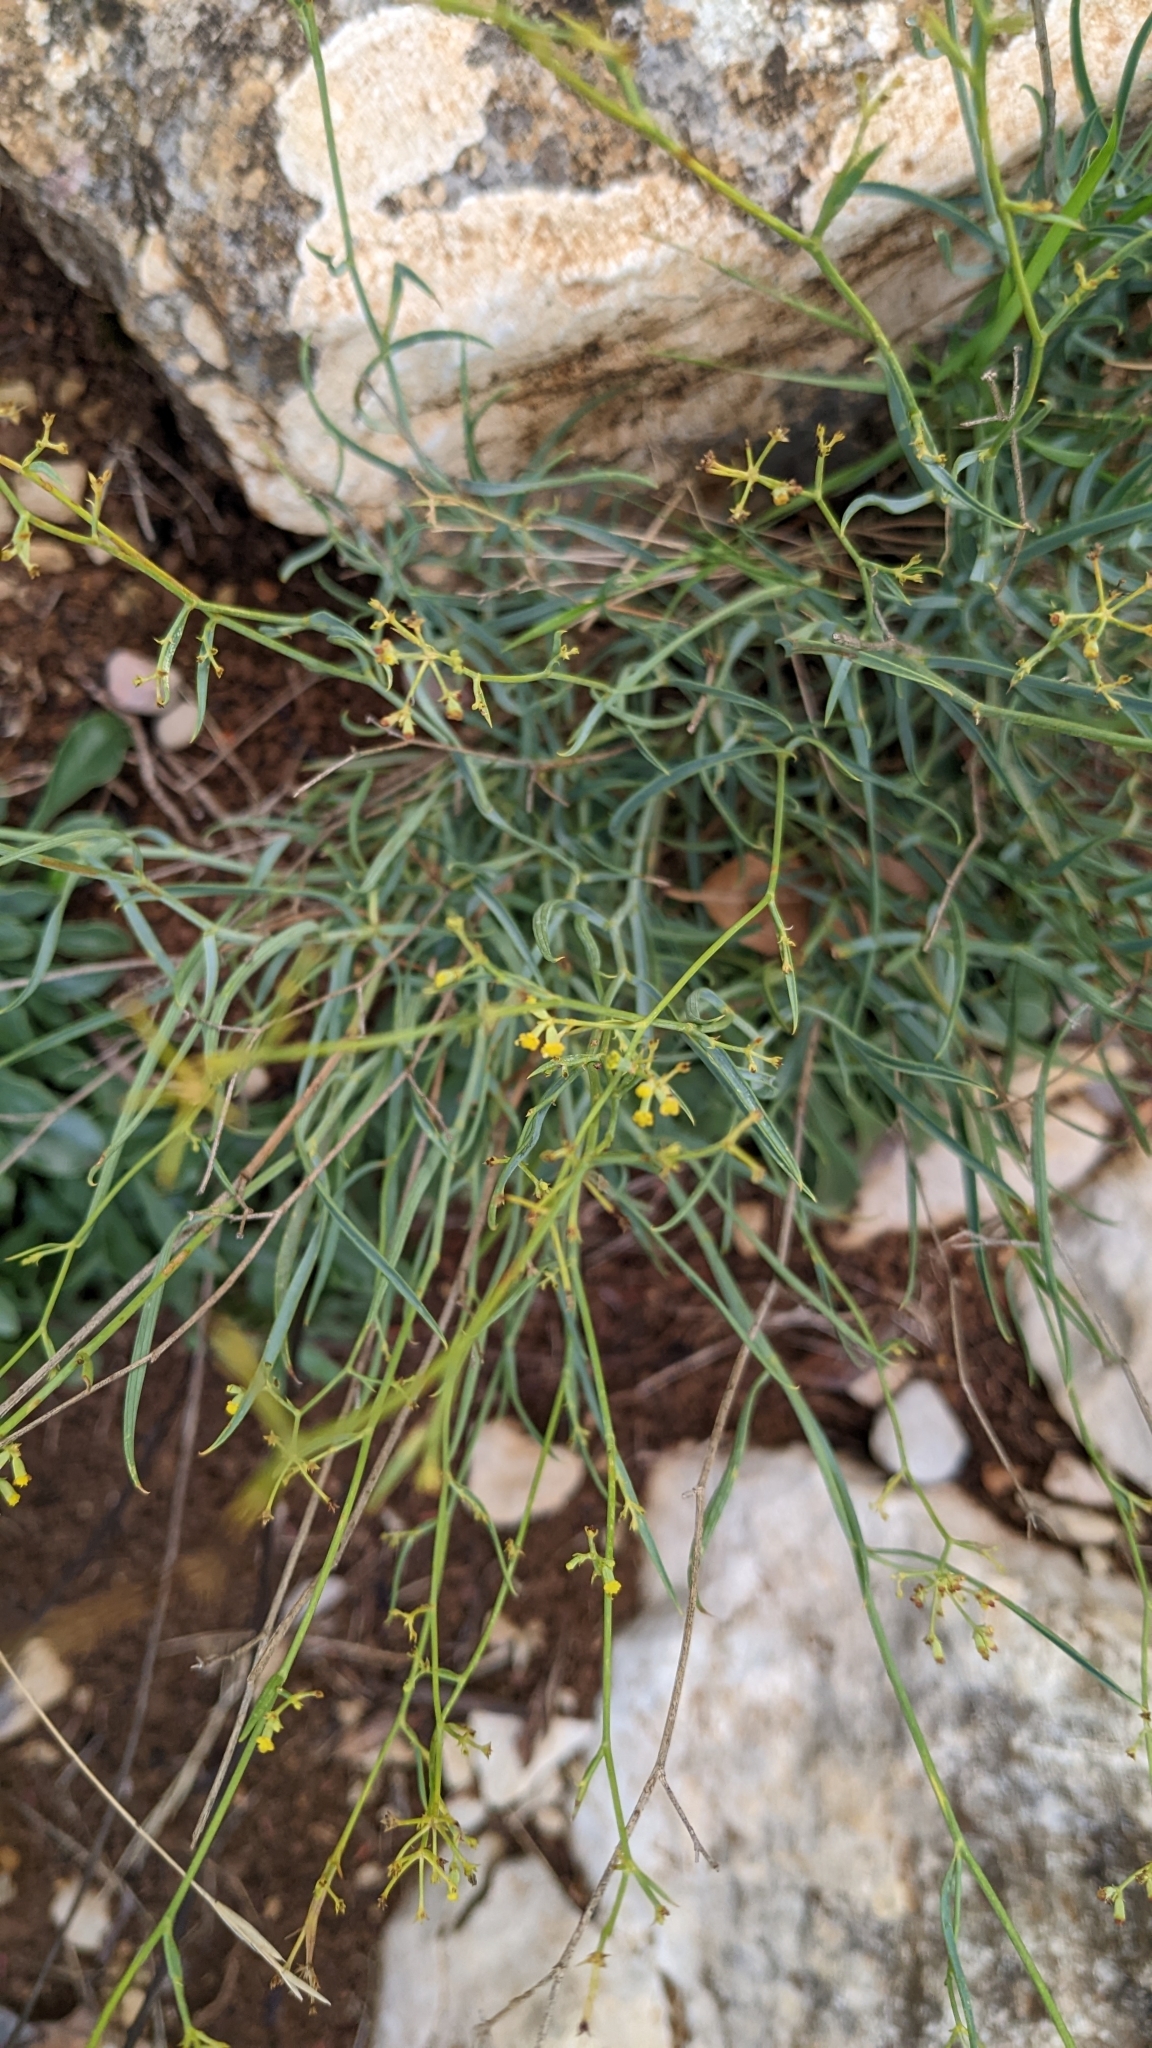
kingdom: Plantae
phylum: Tracheophyta
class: Magnoliopsida
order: Apiales
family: Apiaceae
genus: Bupleurum
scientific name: Bupleurum fruticescens
